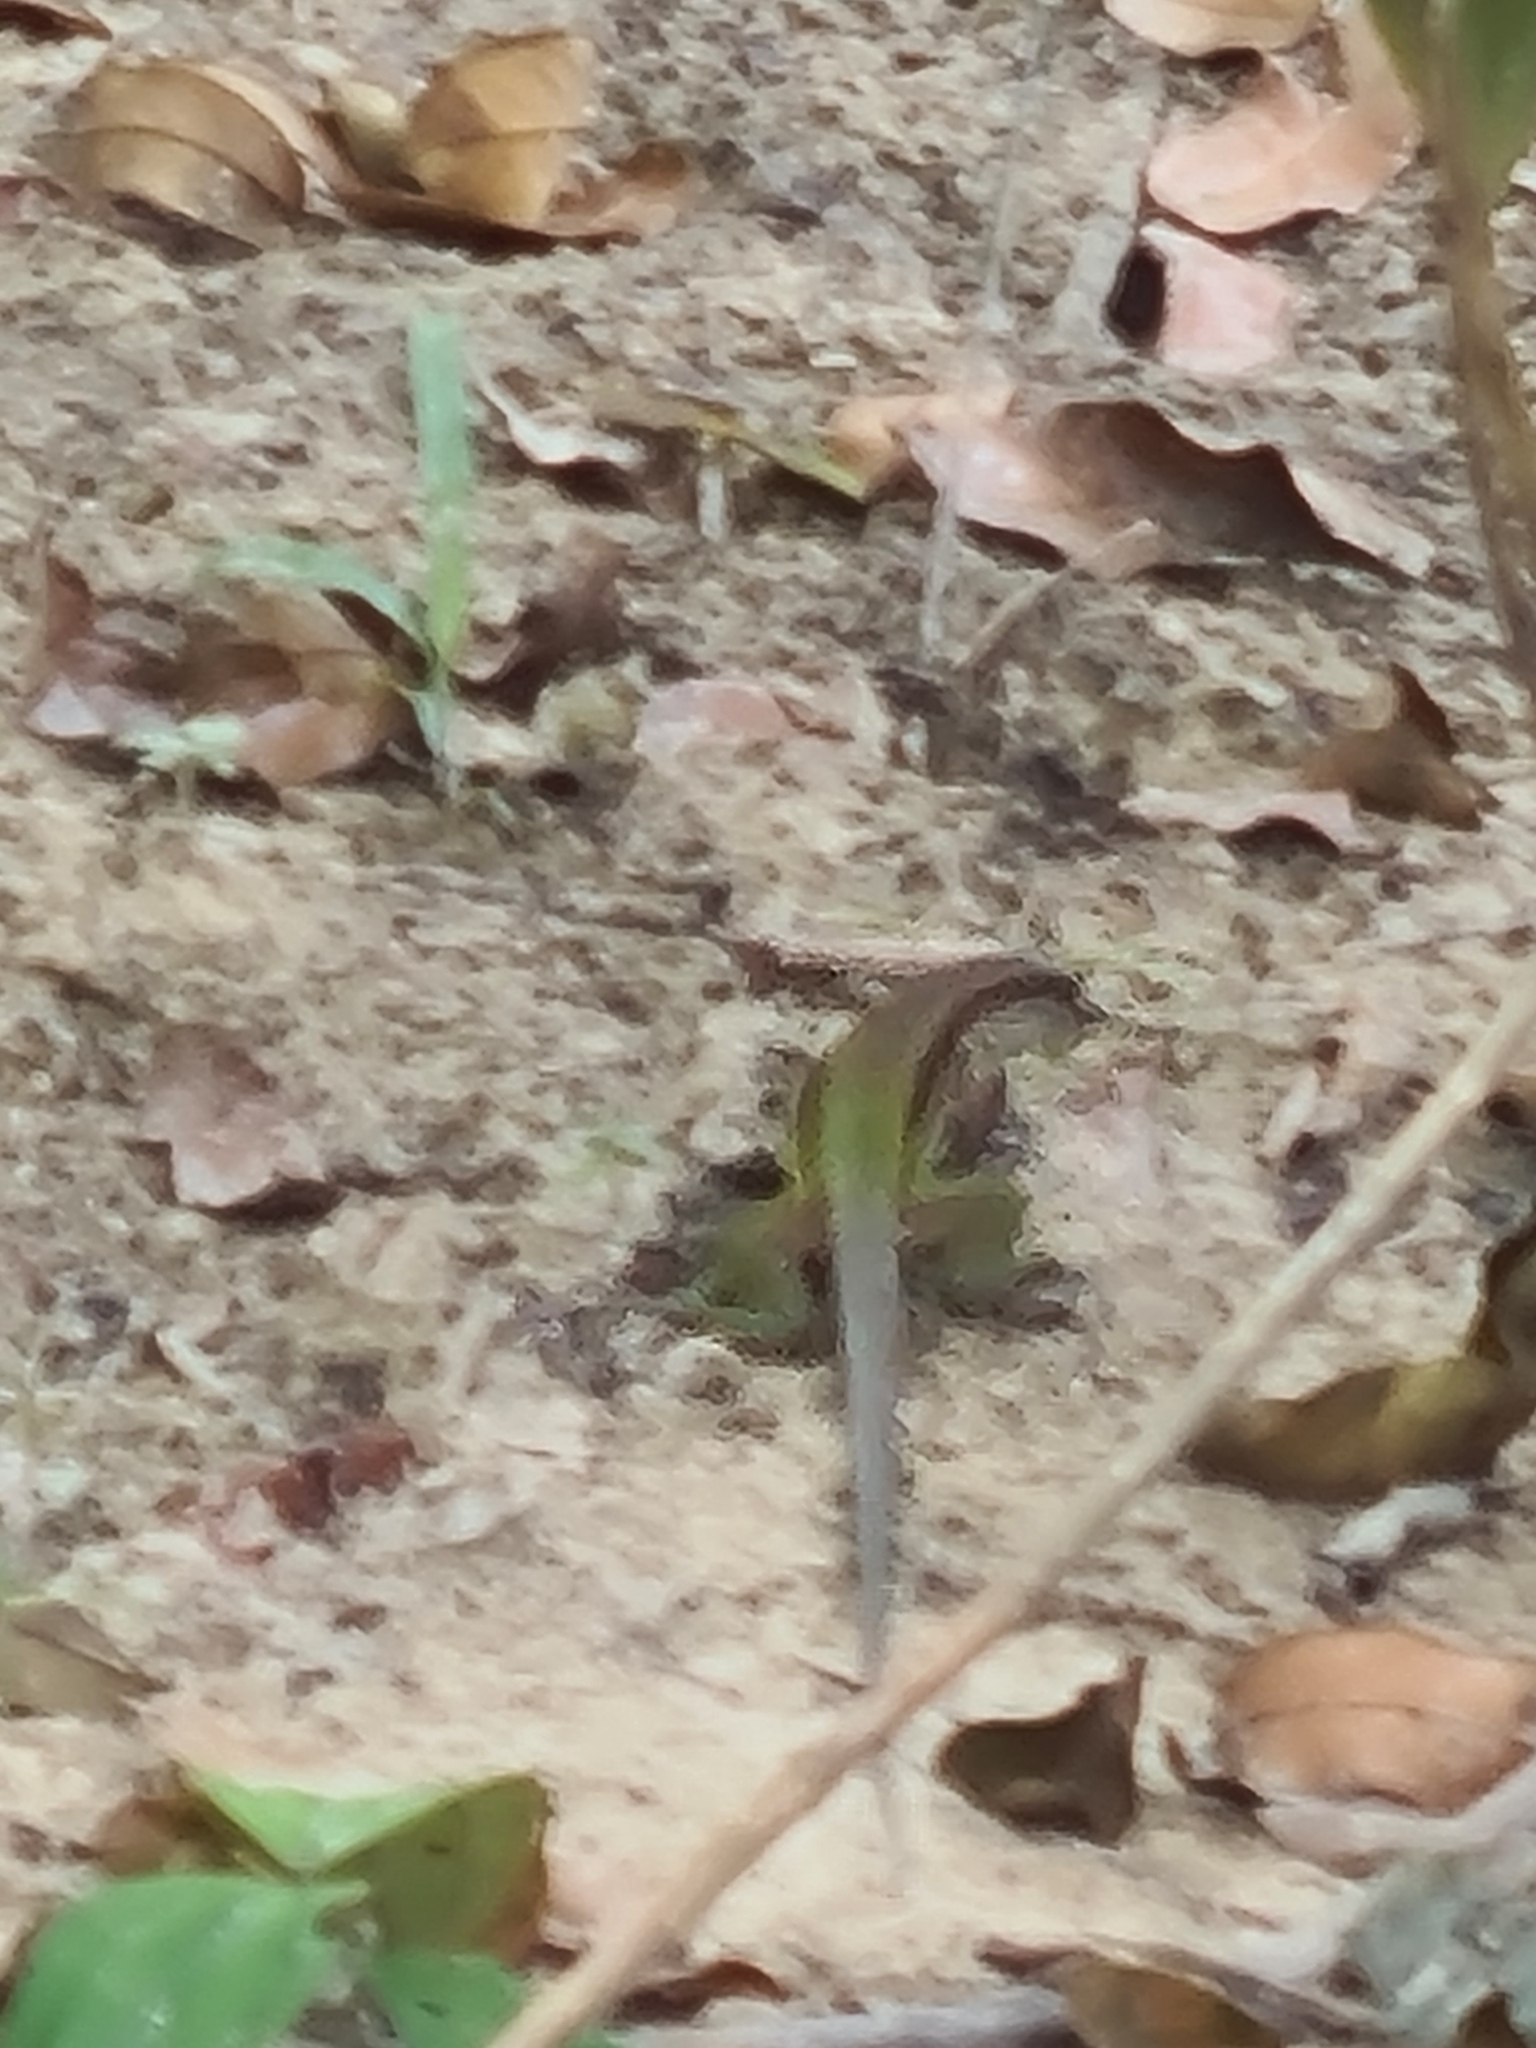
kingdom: Animalia
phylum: Chordata
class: Squamata
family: Teiidae
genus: Ameiva
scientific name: Ameiva ameiva
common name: Giant ameiva
